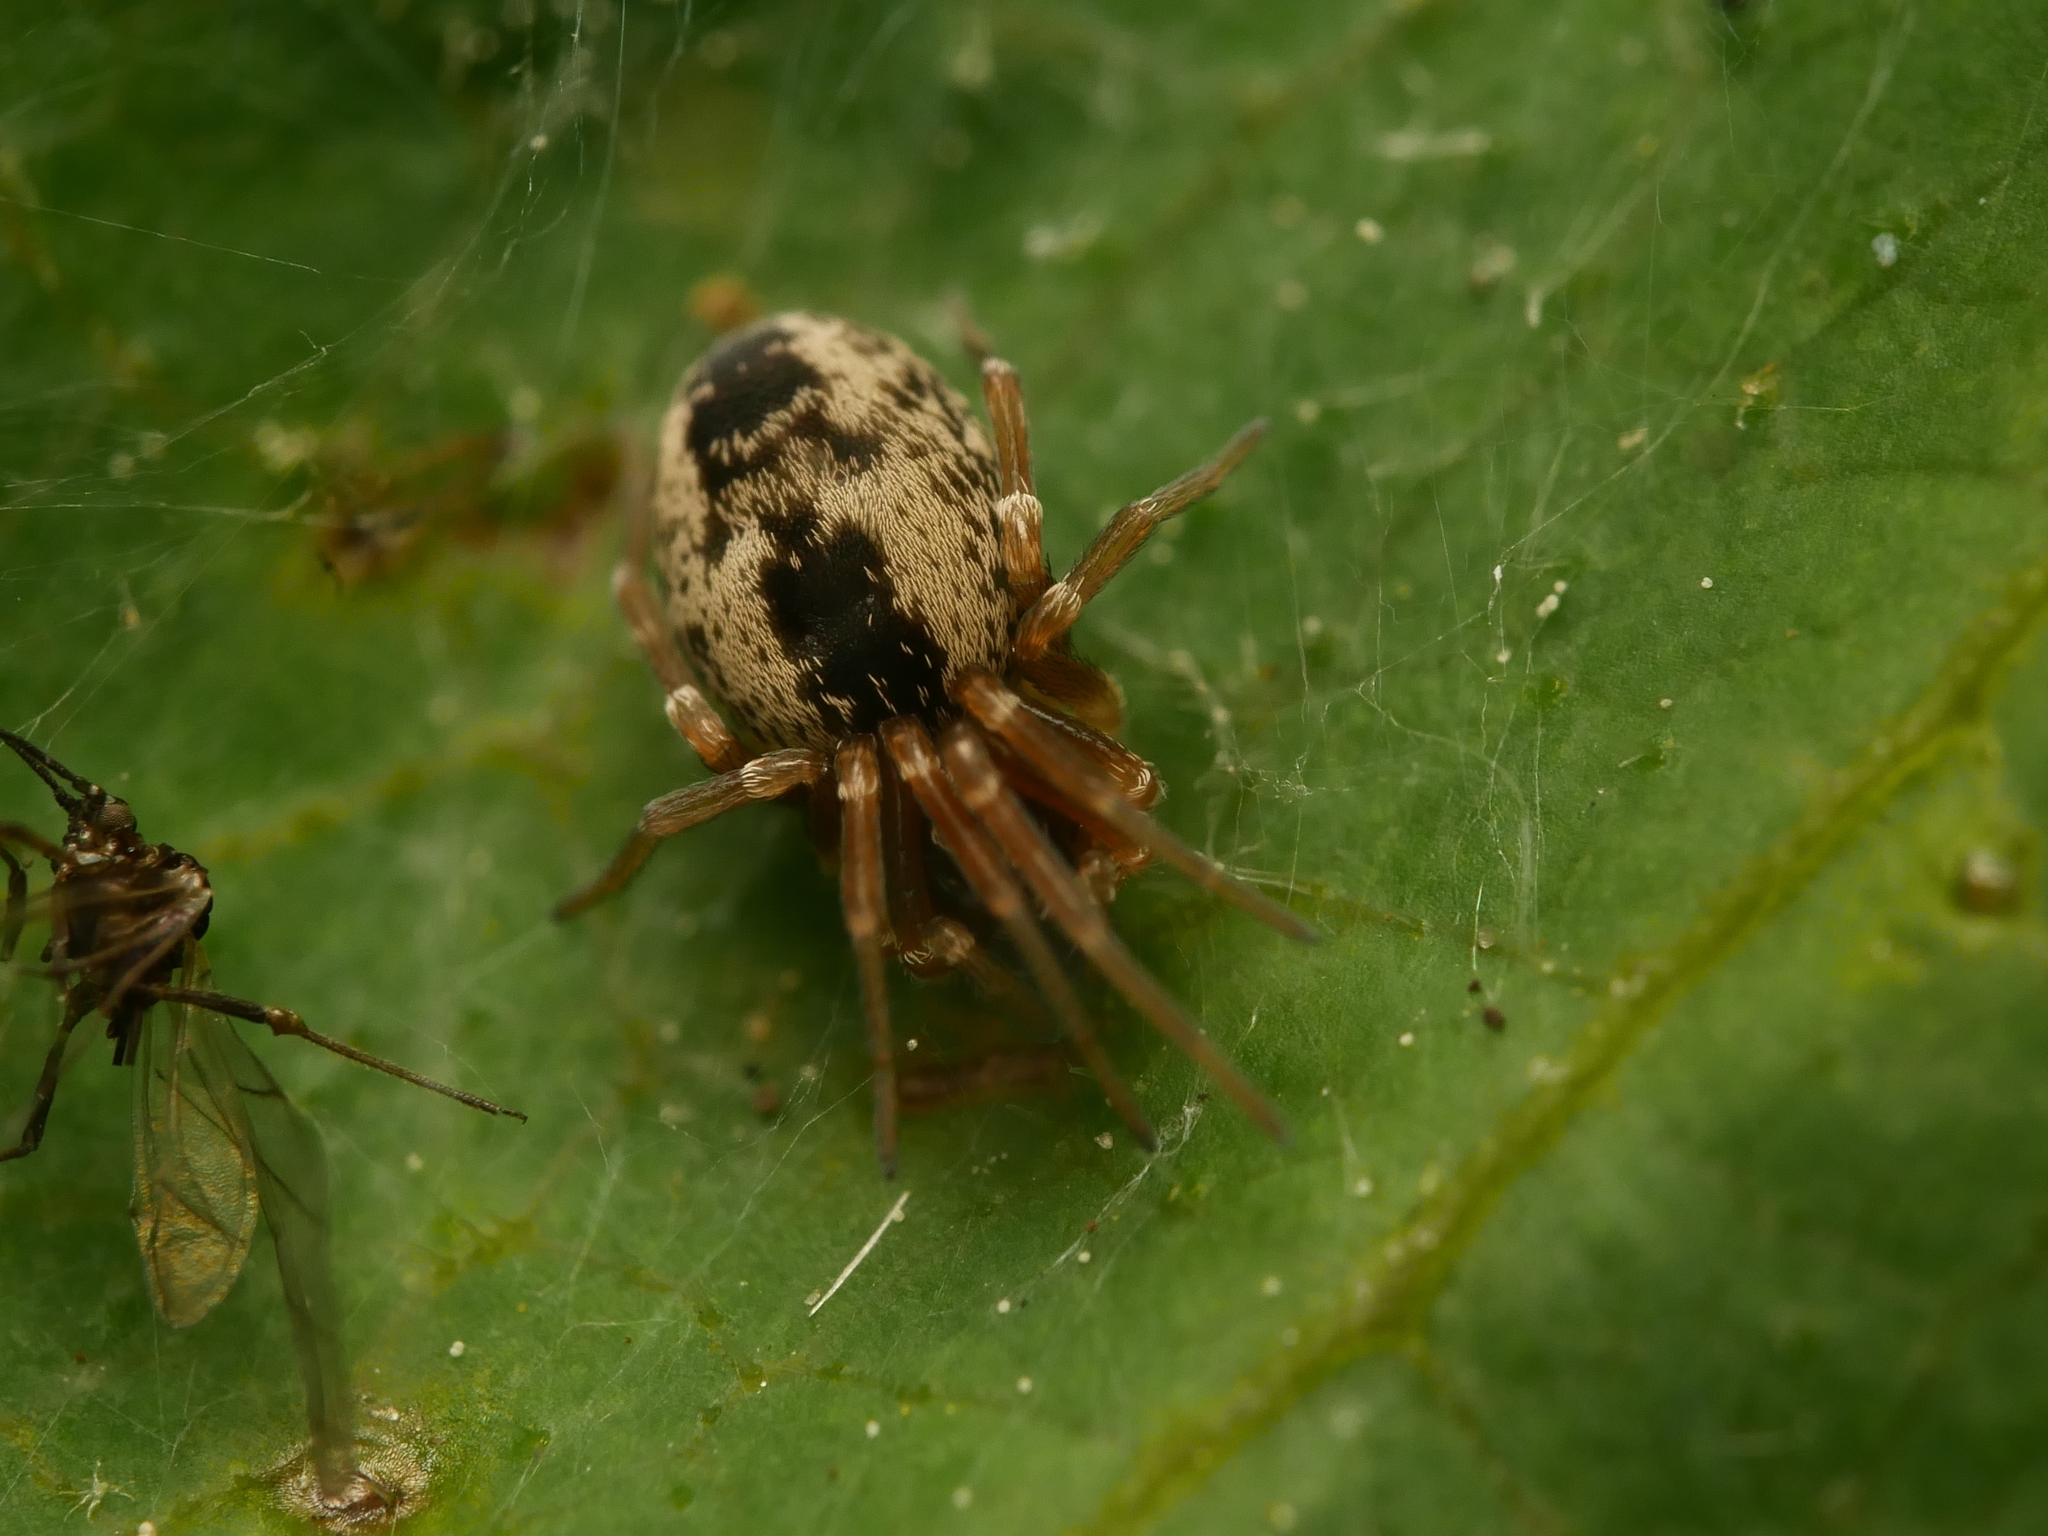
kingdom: Animalia
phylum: Arthropoda
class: Arachnida
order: Araneae
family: Dictynidae
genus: Dictyna
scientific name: Dictyna arundinacea
